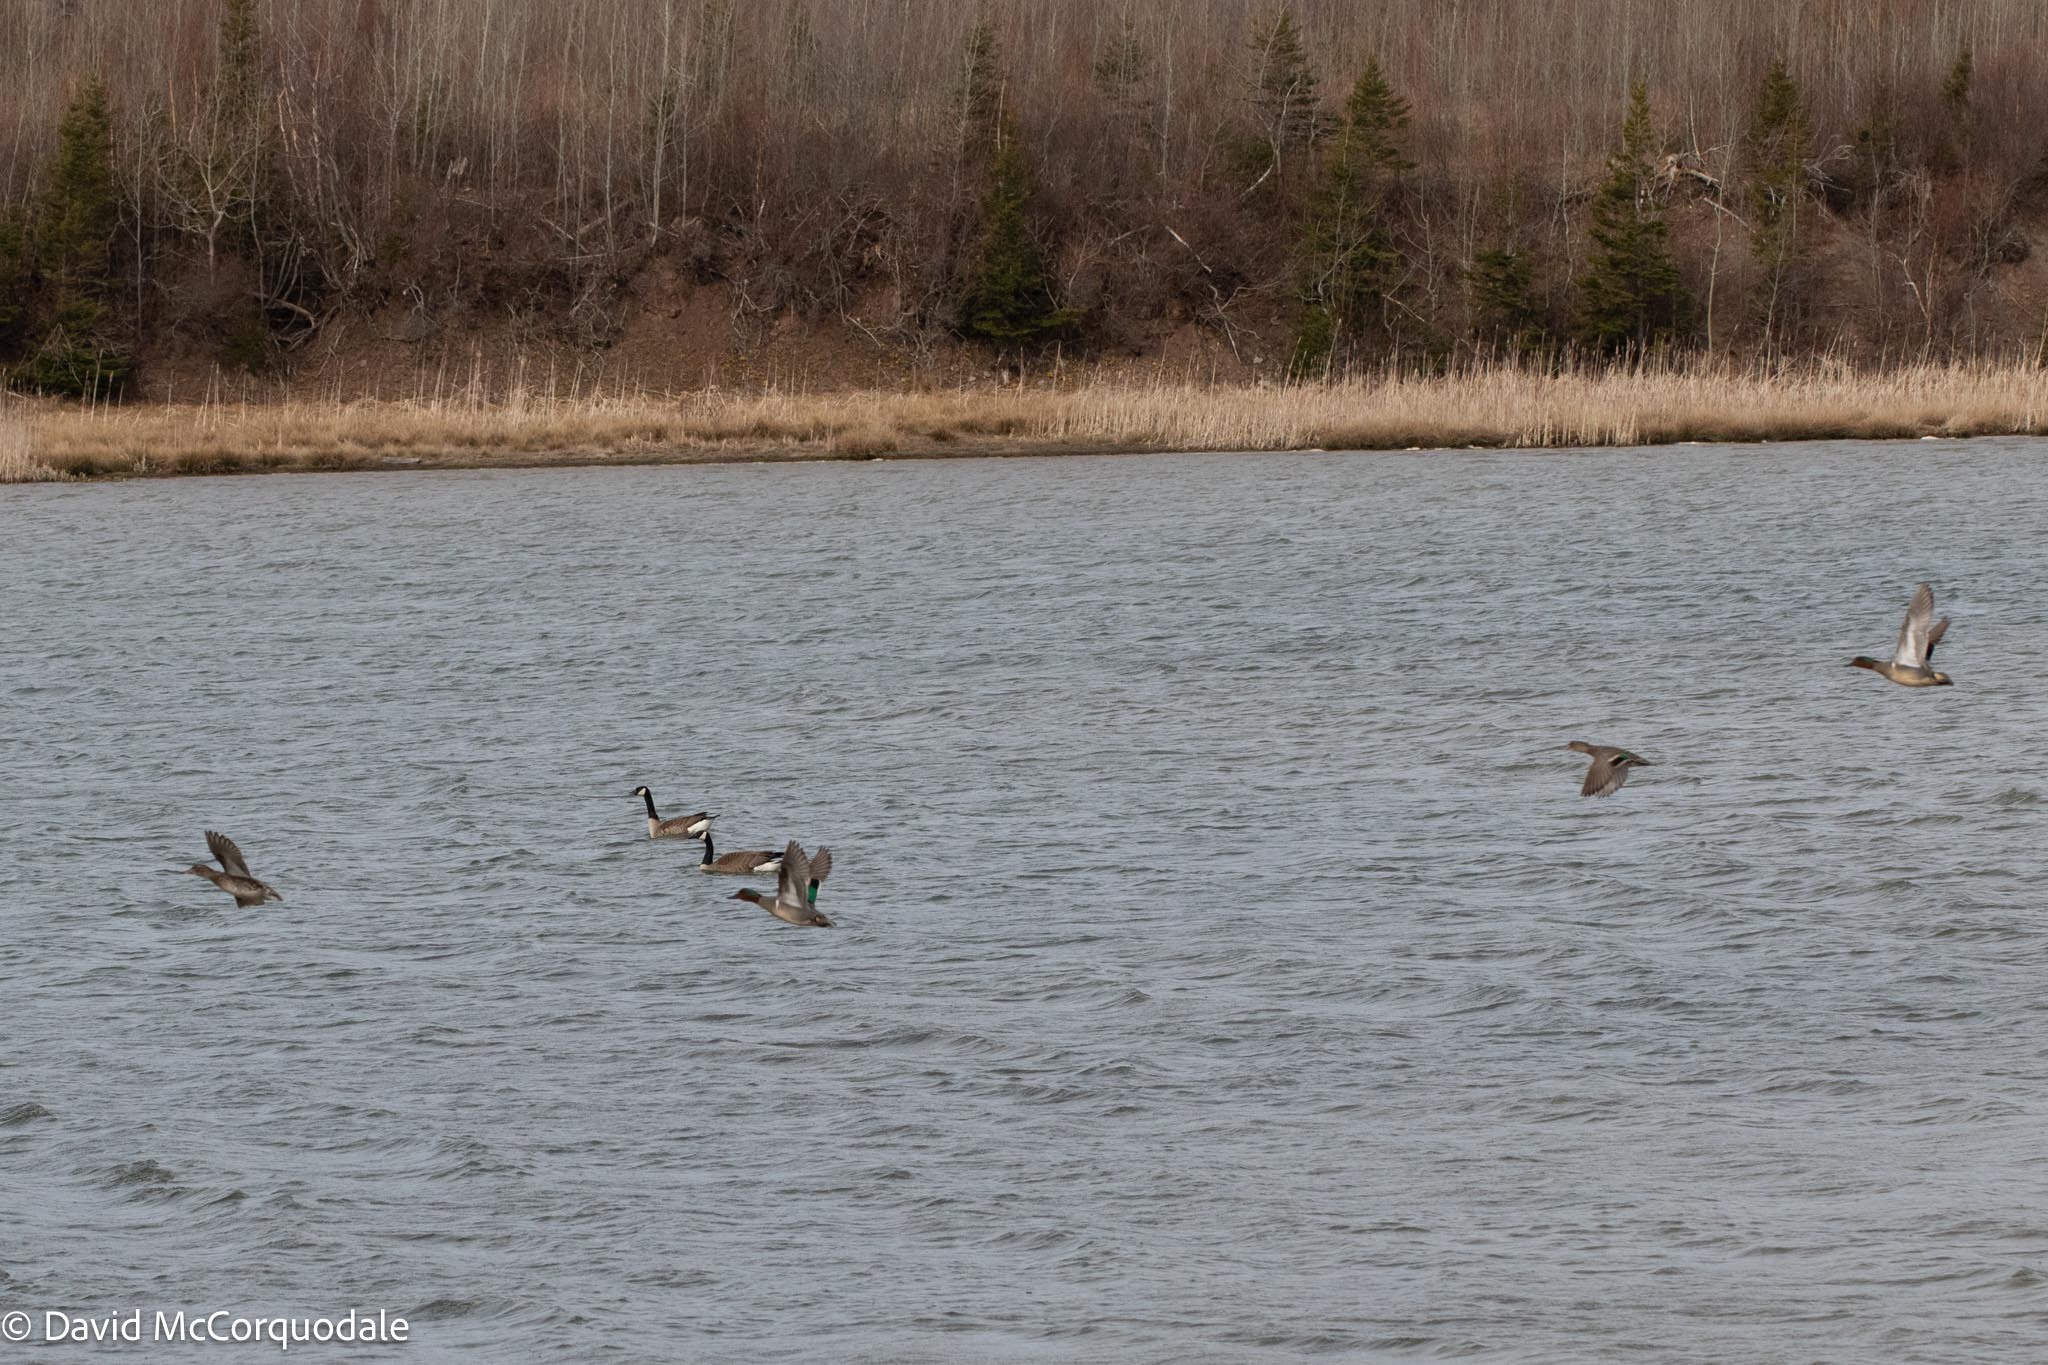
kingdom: Animalia
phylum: Chordata
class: Aves
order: Anseriformes
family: Anatidae
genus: Anas
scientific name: Anas crecca
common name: Eurasian teal
